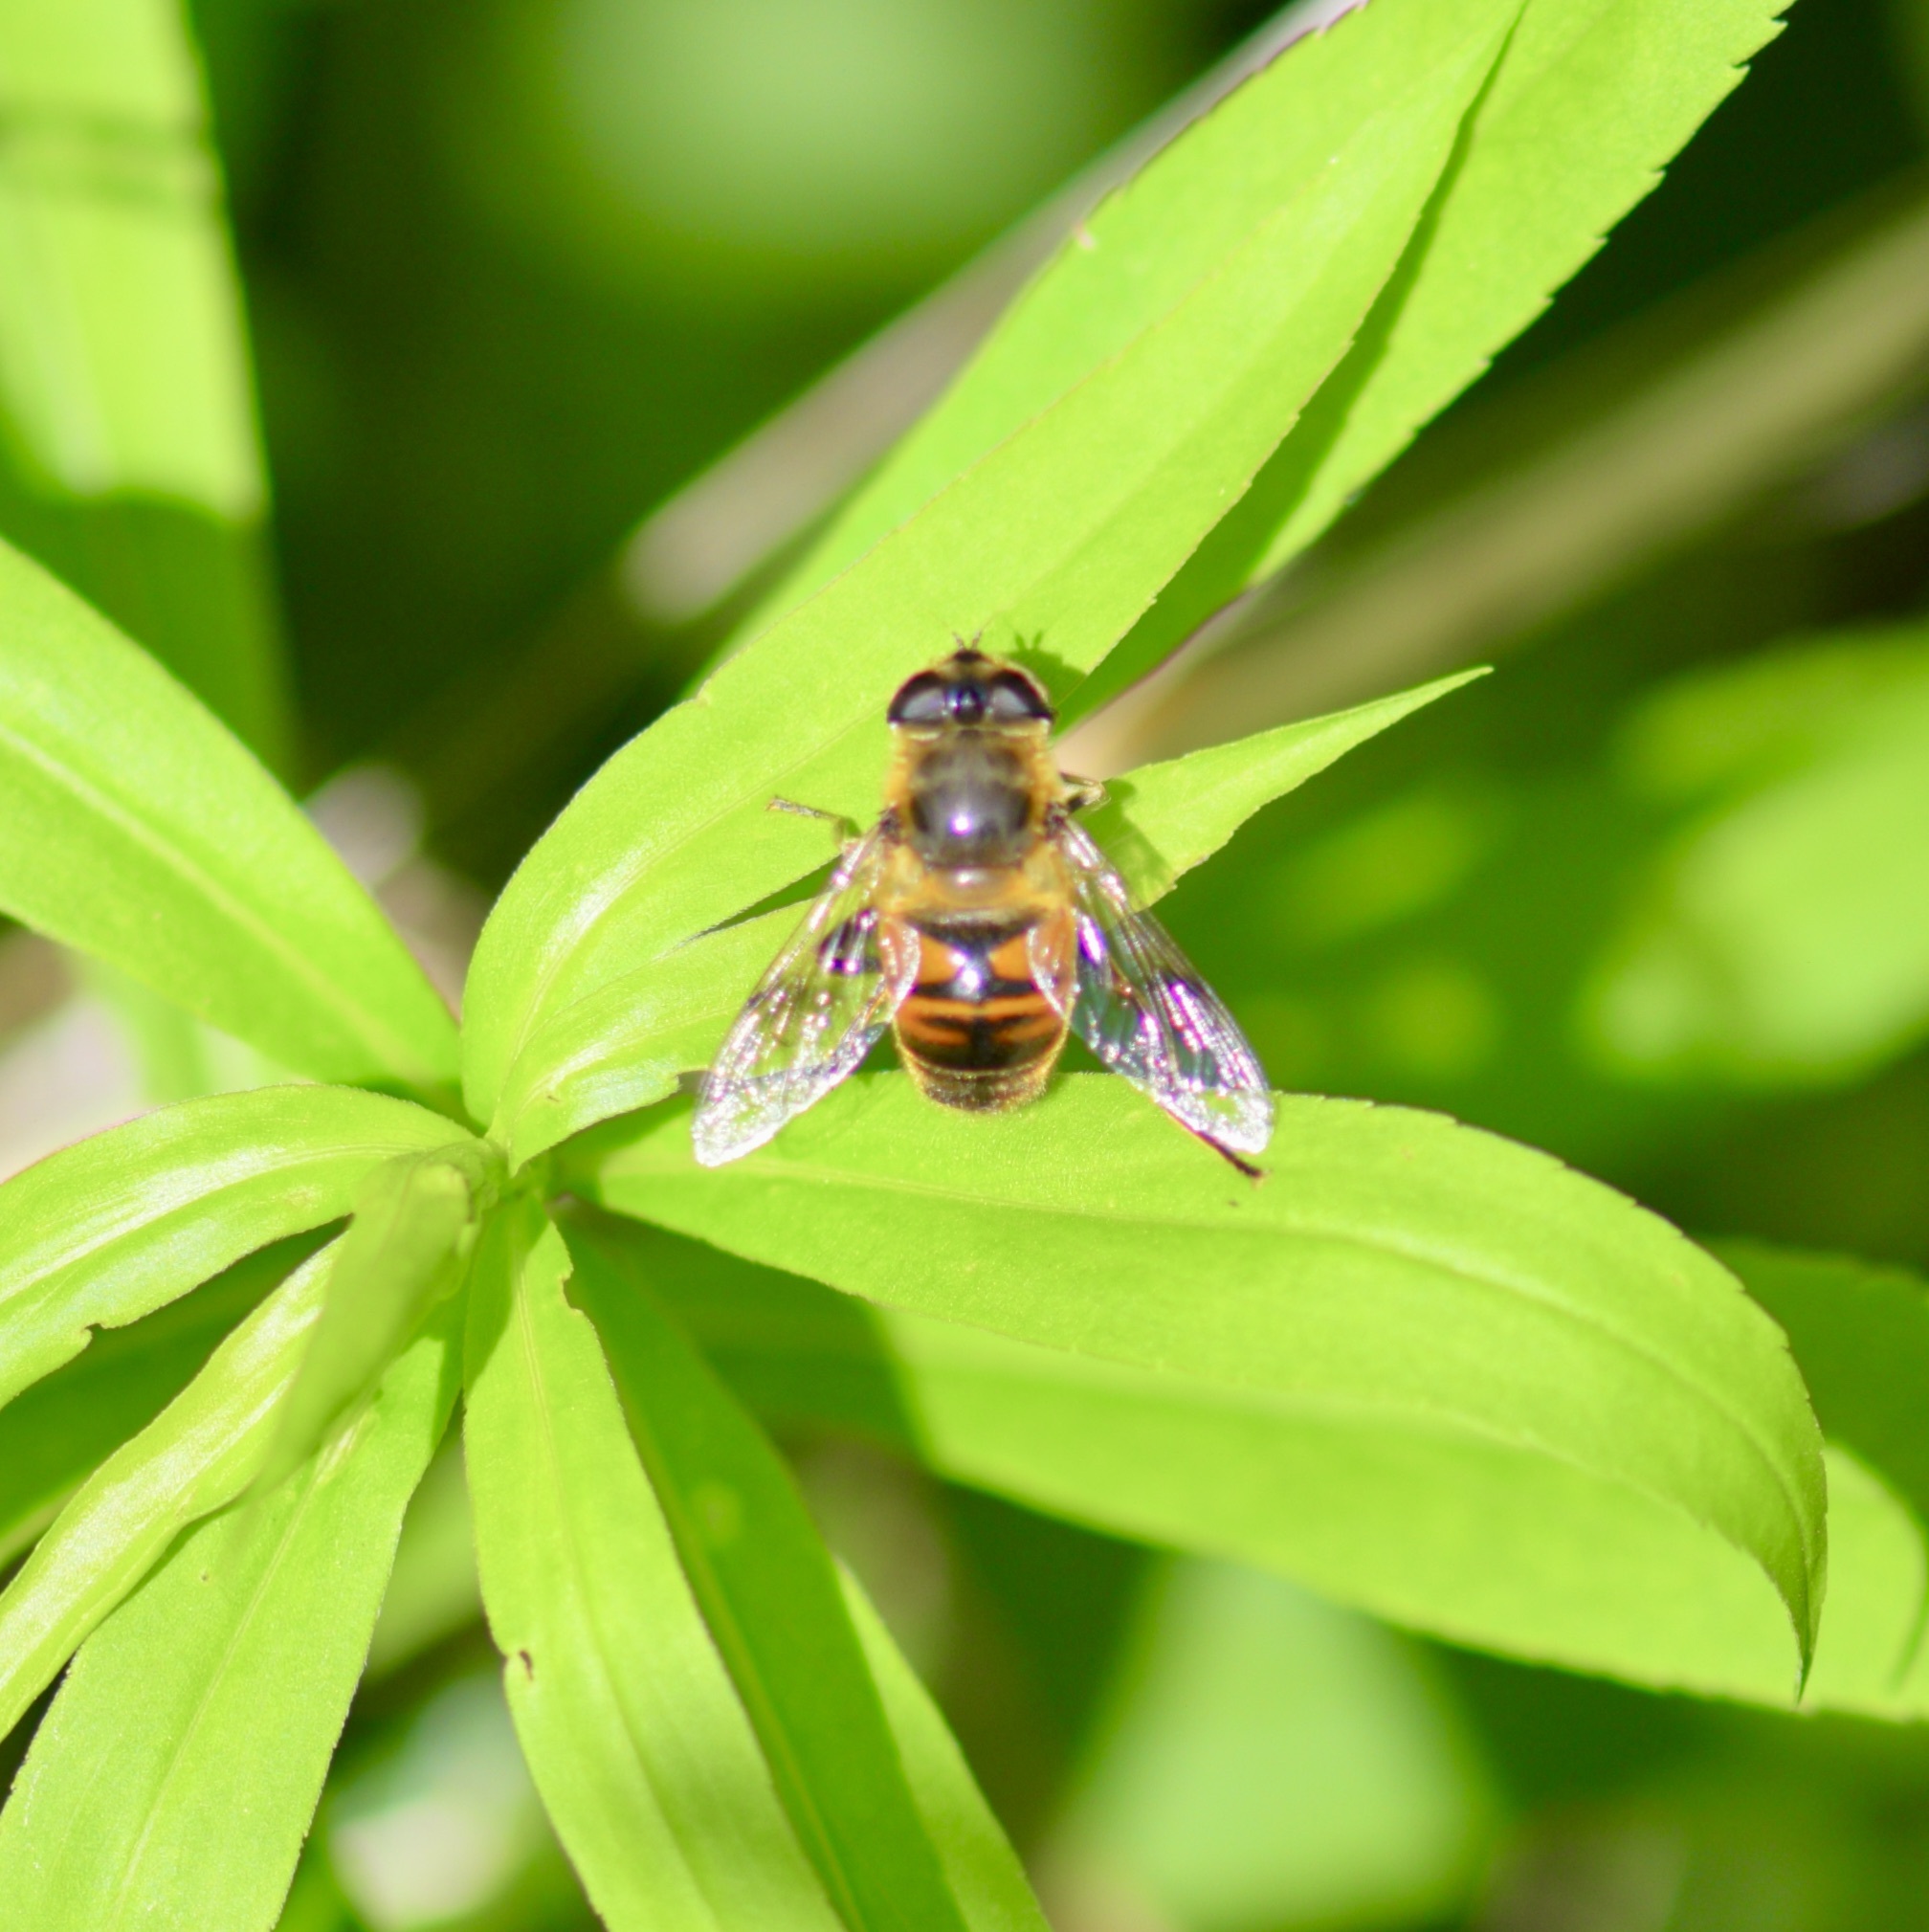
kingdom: Animalia
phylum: Arthropoda
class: Insecta
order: Diptera
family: Syrphidae
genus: Eristalis
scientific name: Eristalis tenax
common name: Drone fly
